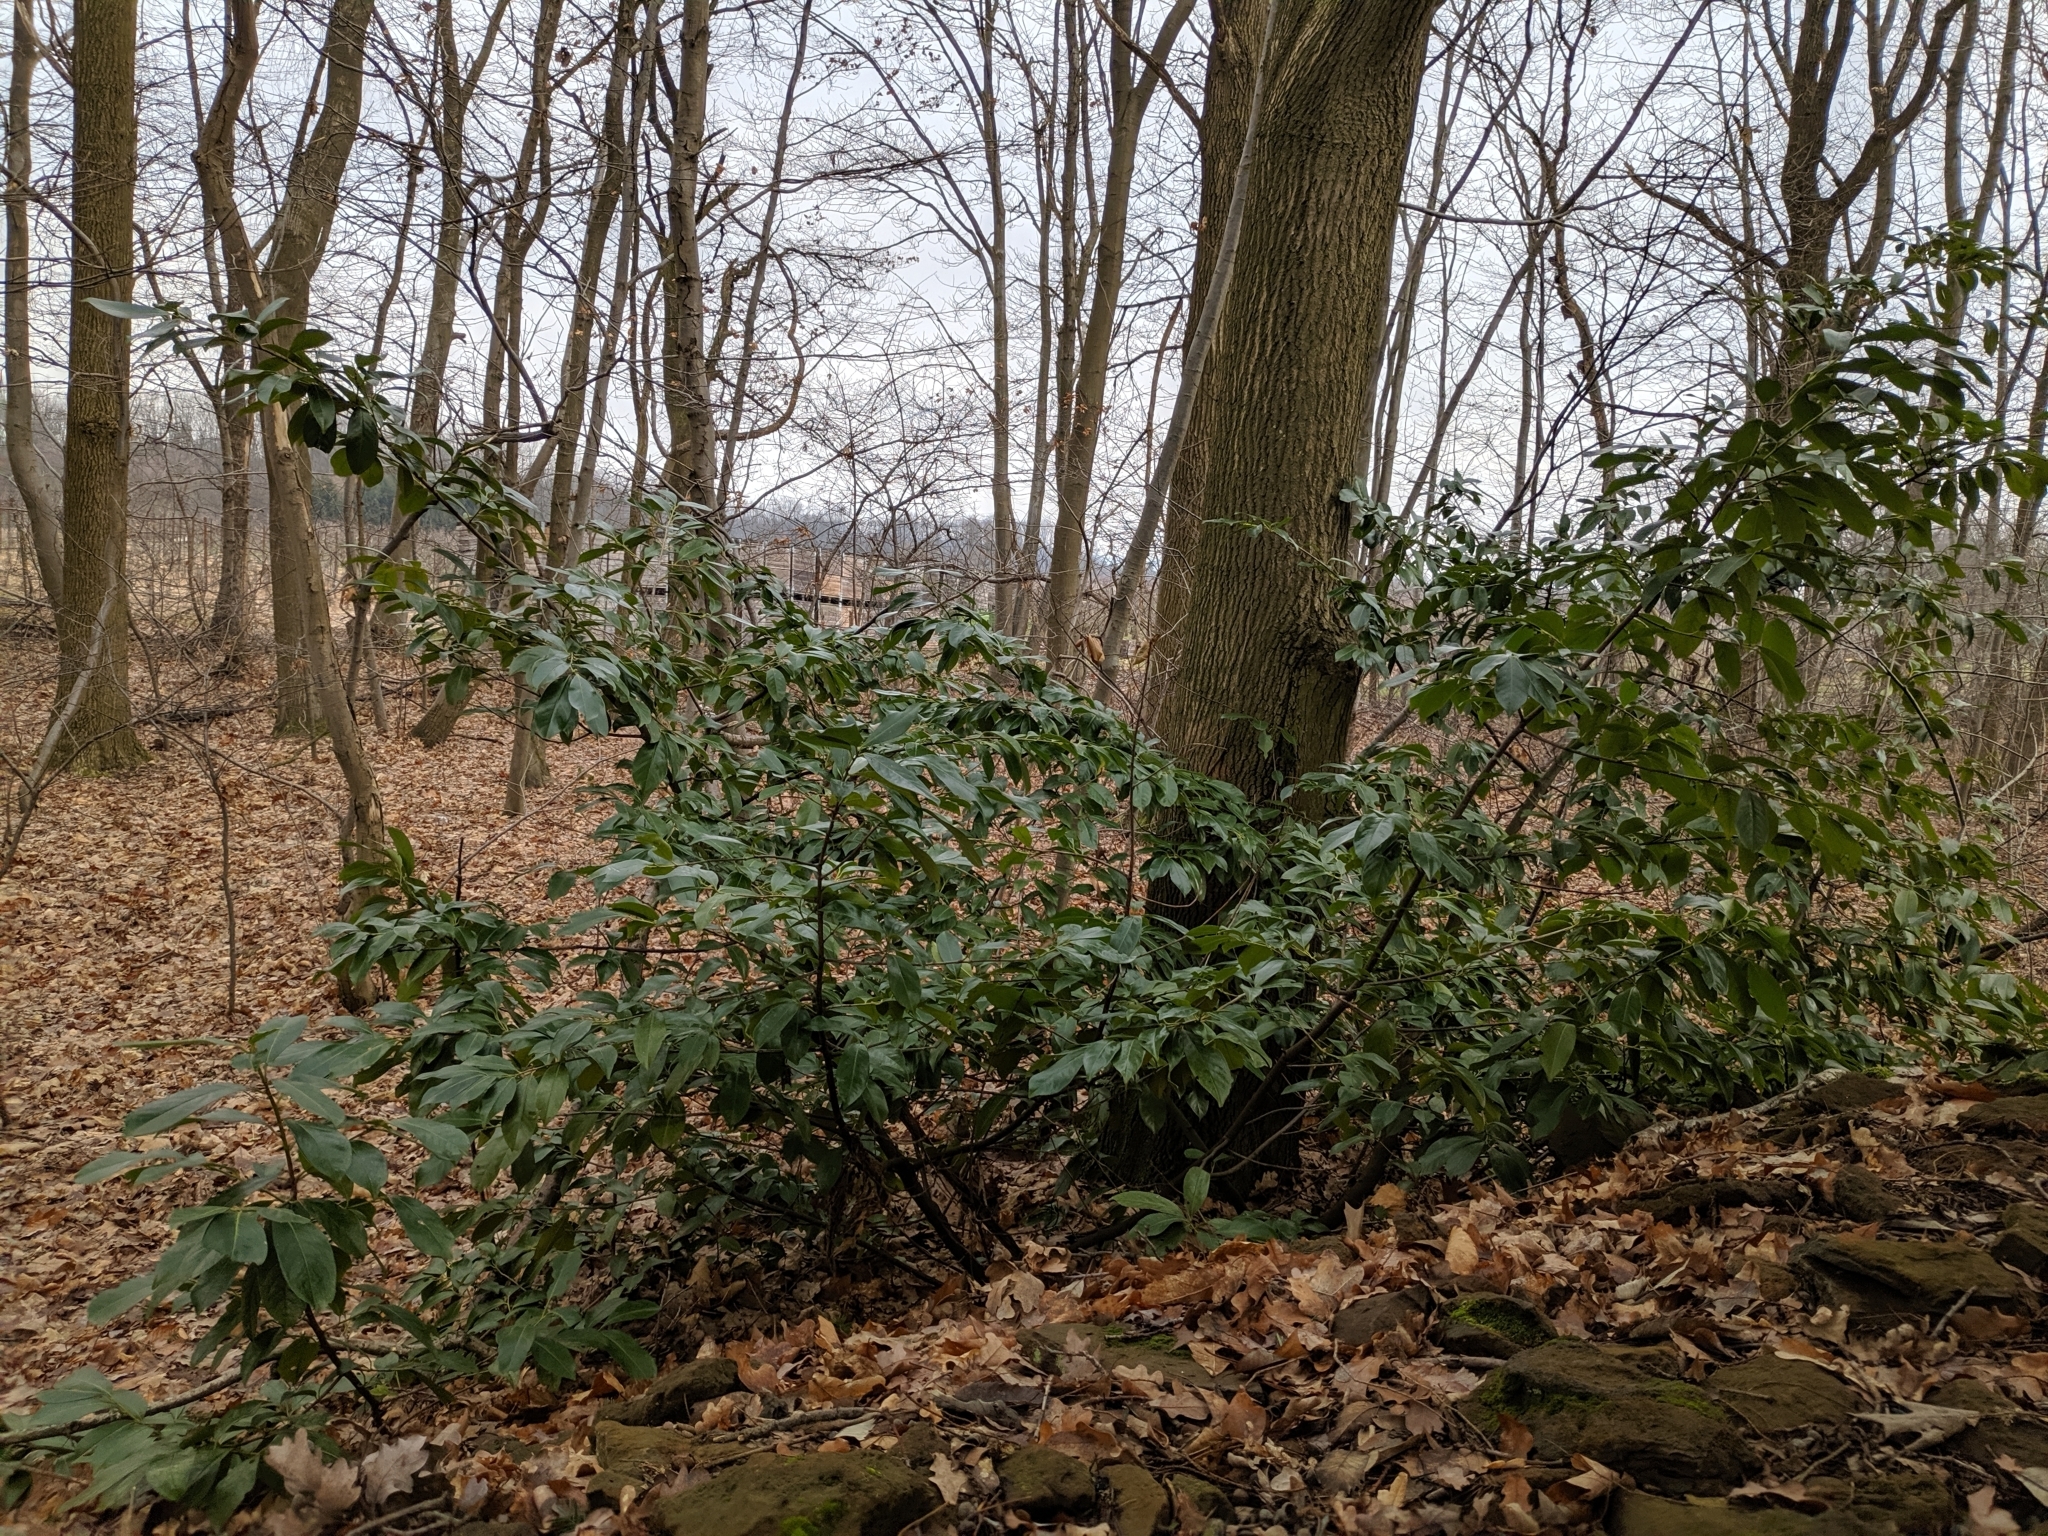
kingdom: Plantae
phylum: Tracheophyta
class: Magnoliopsida
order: Rosales
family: Rosaceae
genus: Prunus
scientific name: Prunus laurocerasus
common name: Cherry laurel
